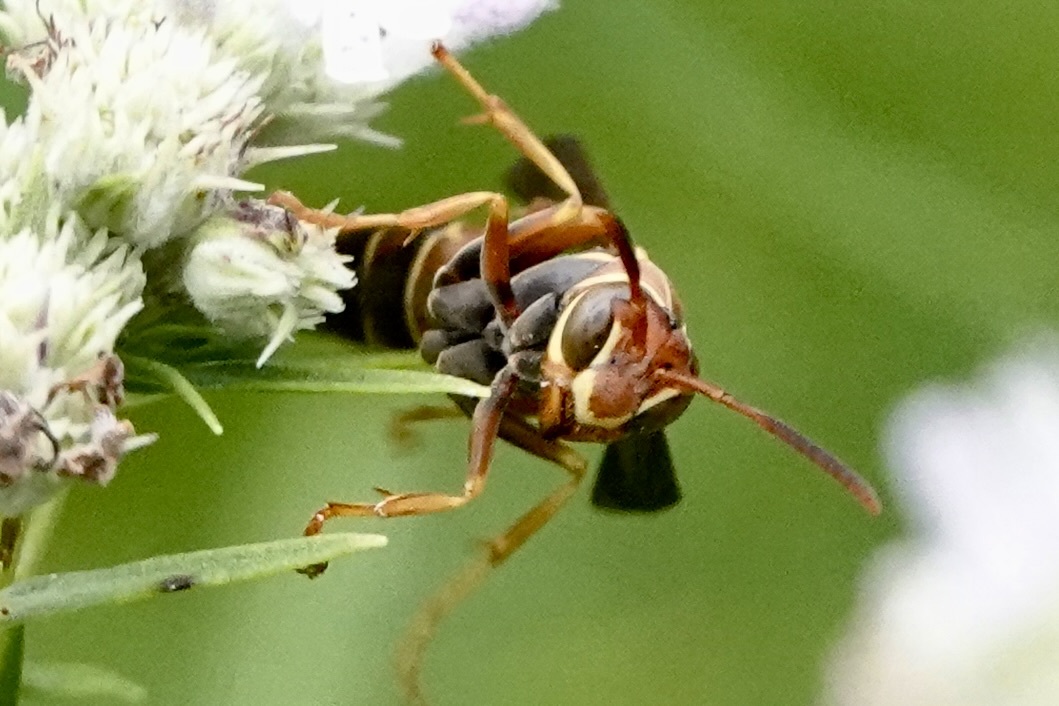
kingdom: Animalia
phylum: Arthropoda
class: Insecta
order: Hymenoptera
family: Eumenidae
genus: Polistes
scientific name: Polistes dorsalis
